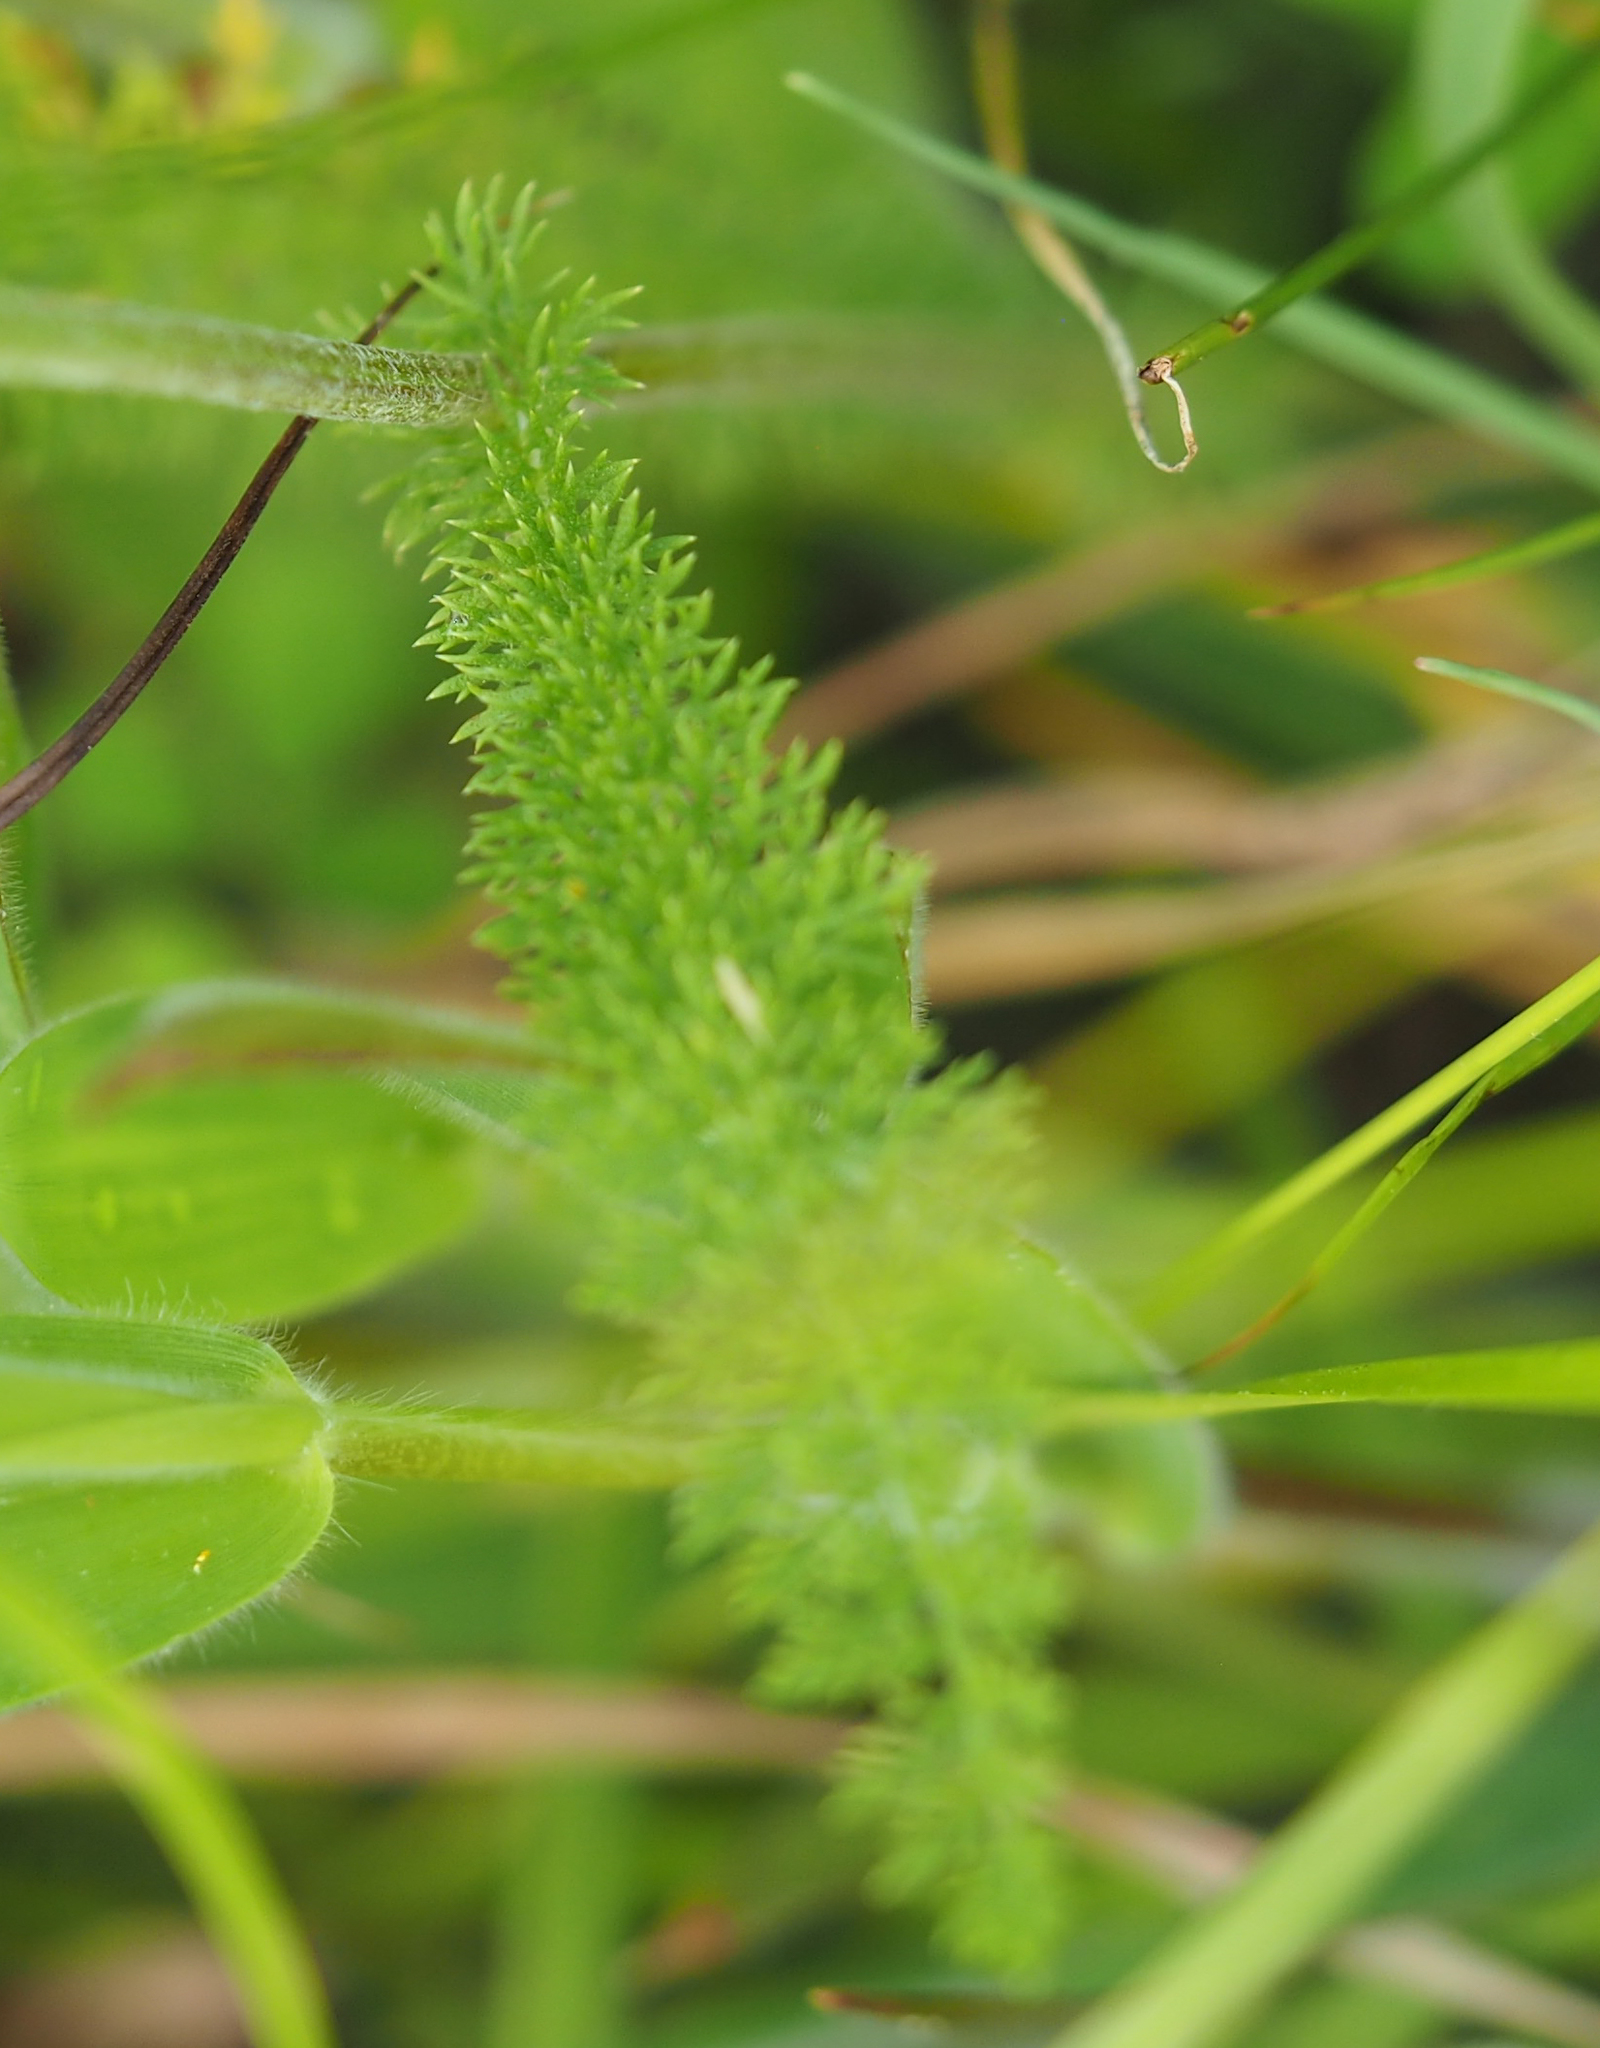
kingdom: Plantae
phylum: Tracheophyta
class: Magnoliopsida
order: Asterales
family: Asteraceae
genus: Achillea
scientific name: Achillea millefolium
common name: Yarrow
